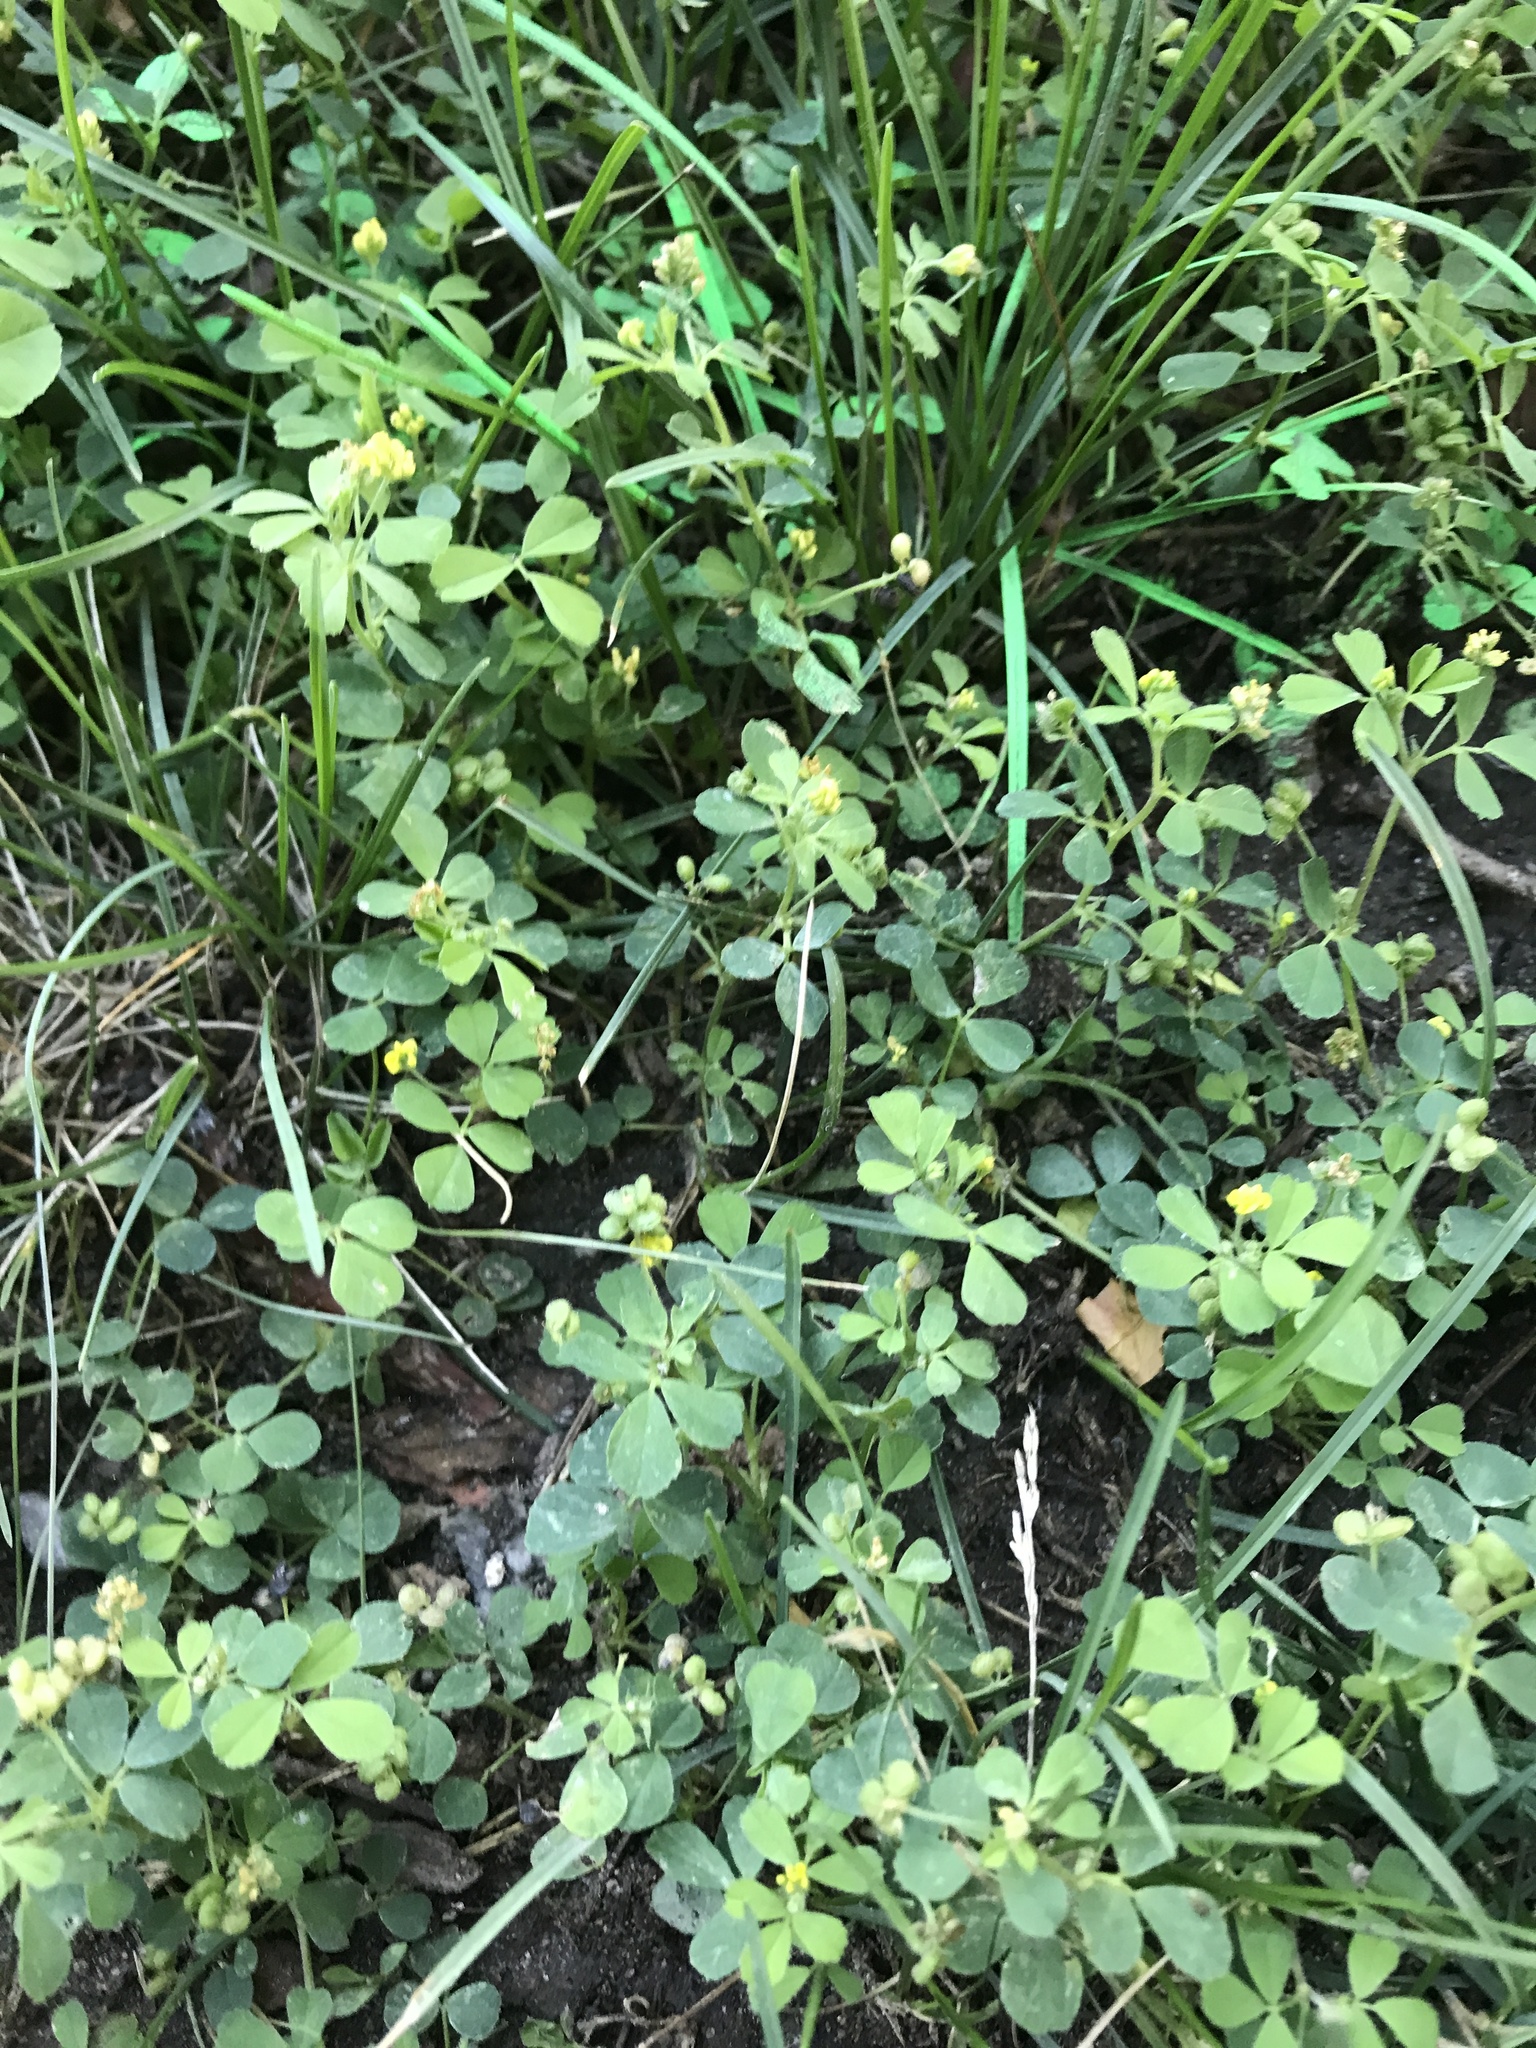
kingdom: Plantae
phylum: Tracheophyta
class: Magnoliopsida
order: Fabales
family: Fabaceae
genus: Medicago
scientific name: Medicago lupulina
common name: Black medick
